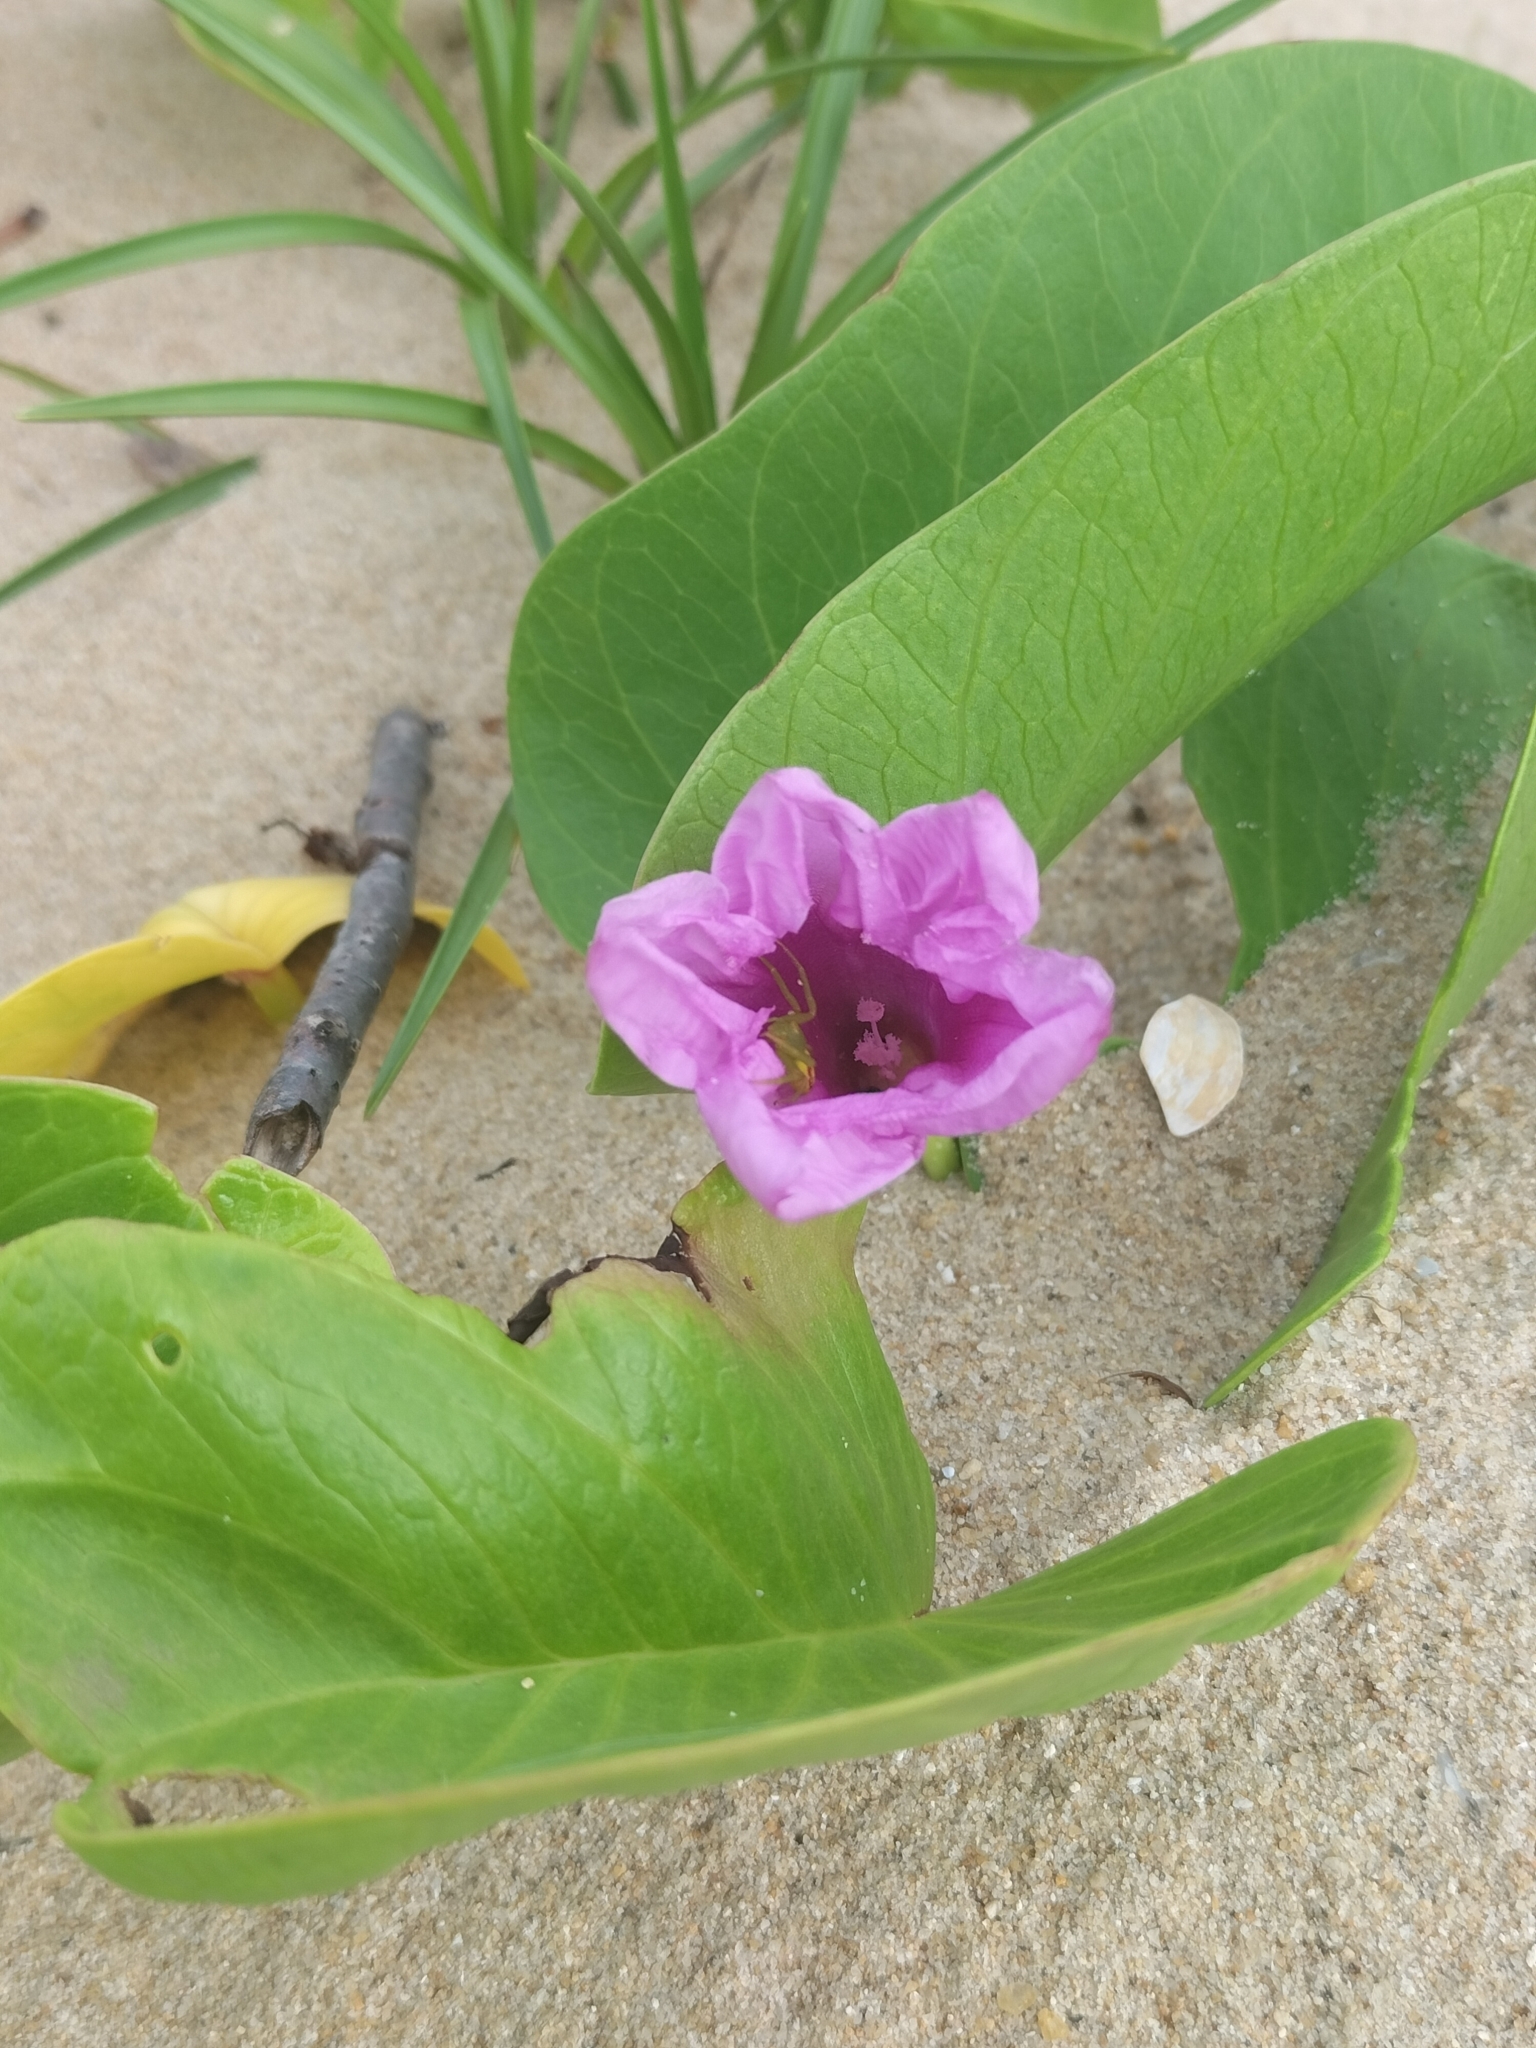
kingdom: Plantae
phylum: Tracheophyta
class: Magnoliopsida
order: Solanales
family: Convolvulaceae
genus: Ipomoea
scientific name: Ipomoea pes-caprae
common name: Beach morning glory
